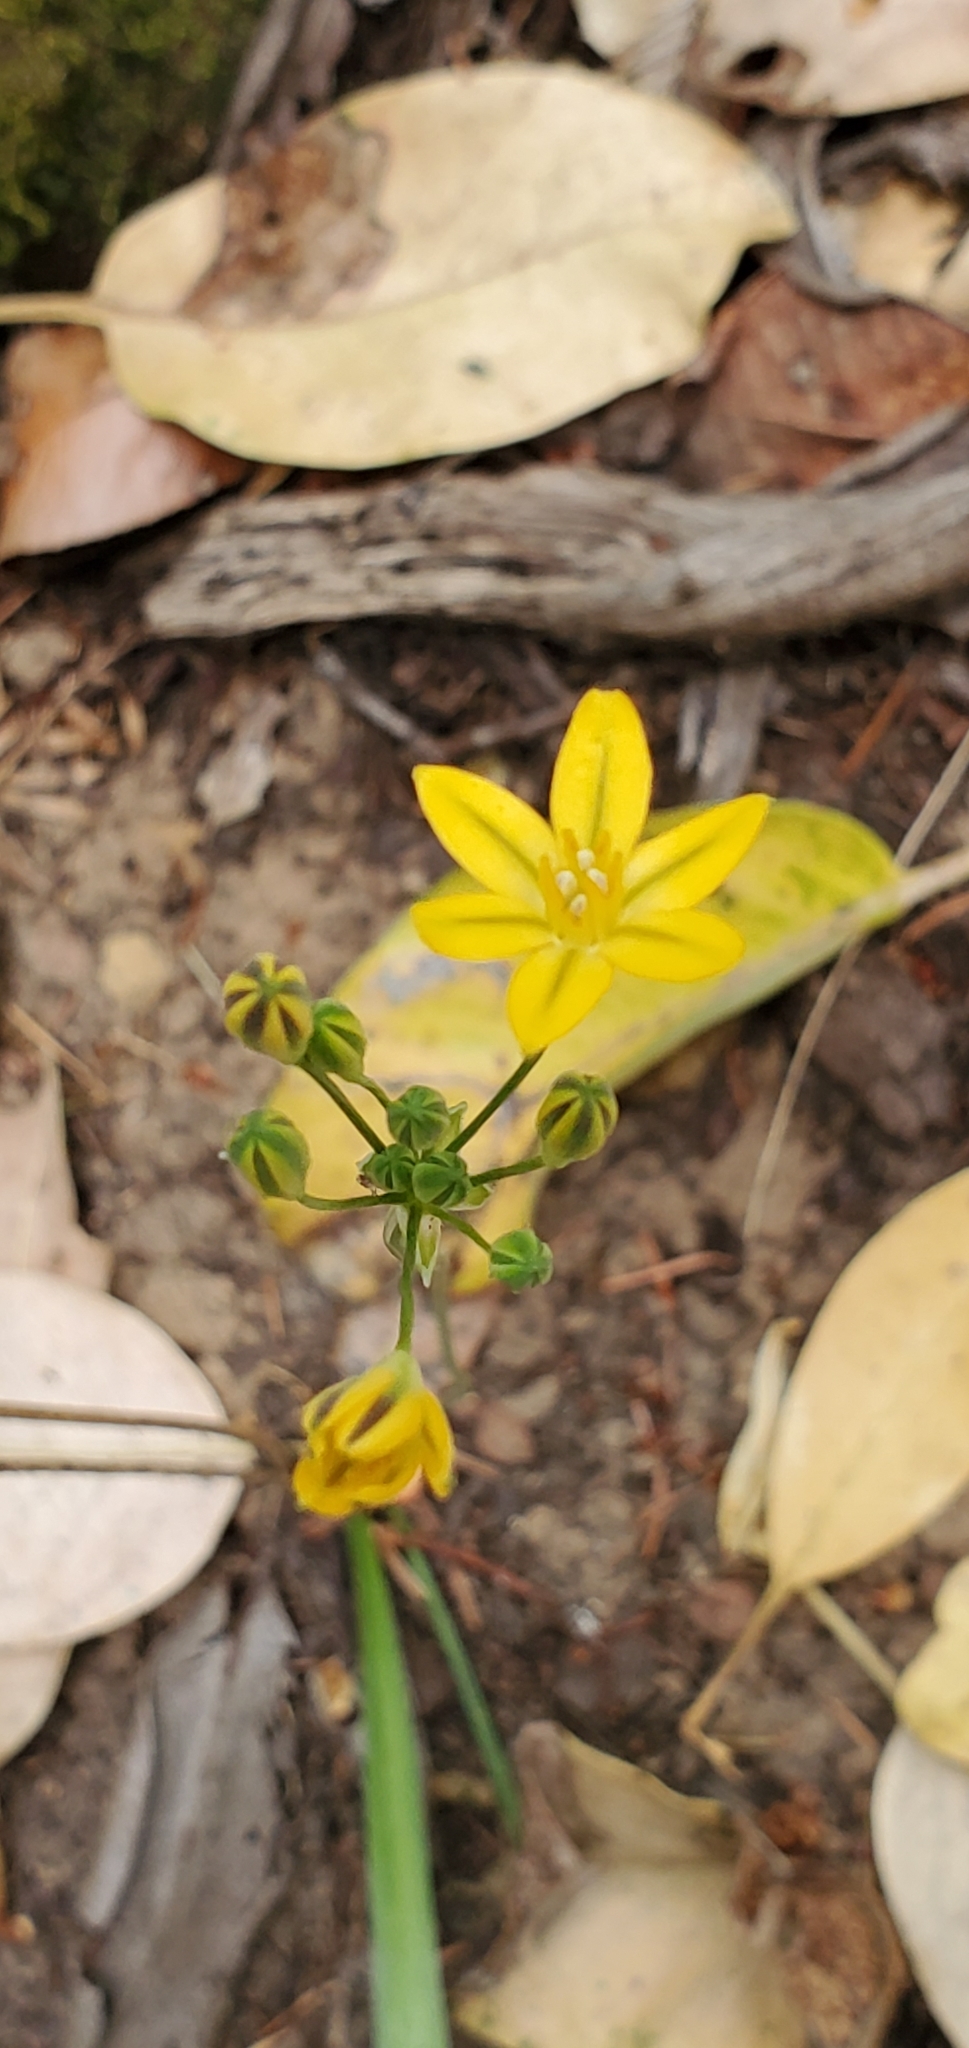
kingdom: Plantae
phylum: Tracheophyta
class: Liliopsida
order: Asparagales
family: Asparagaceae
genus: Triteleia
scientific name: Triteleia ixioides
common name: Yellow-brodiaea
